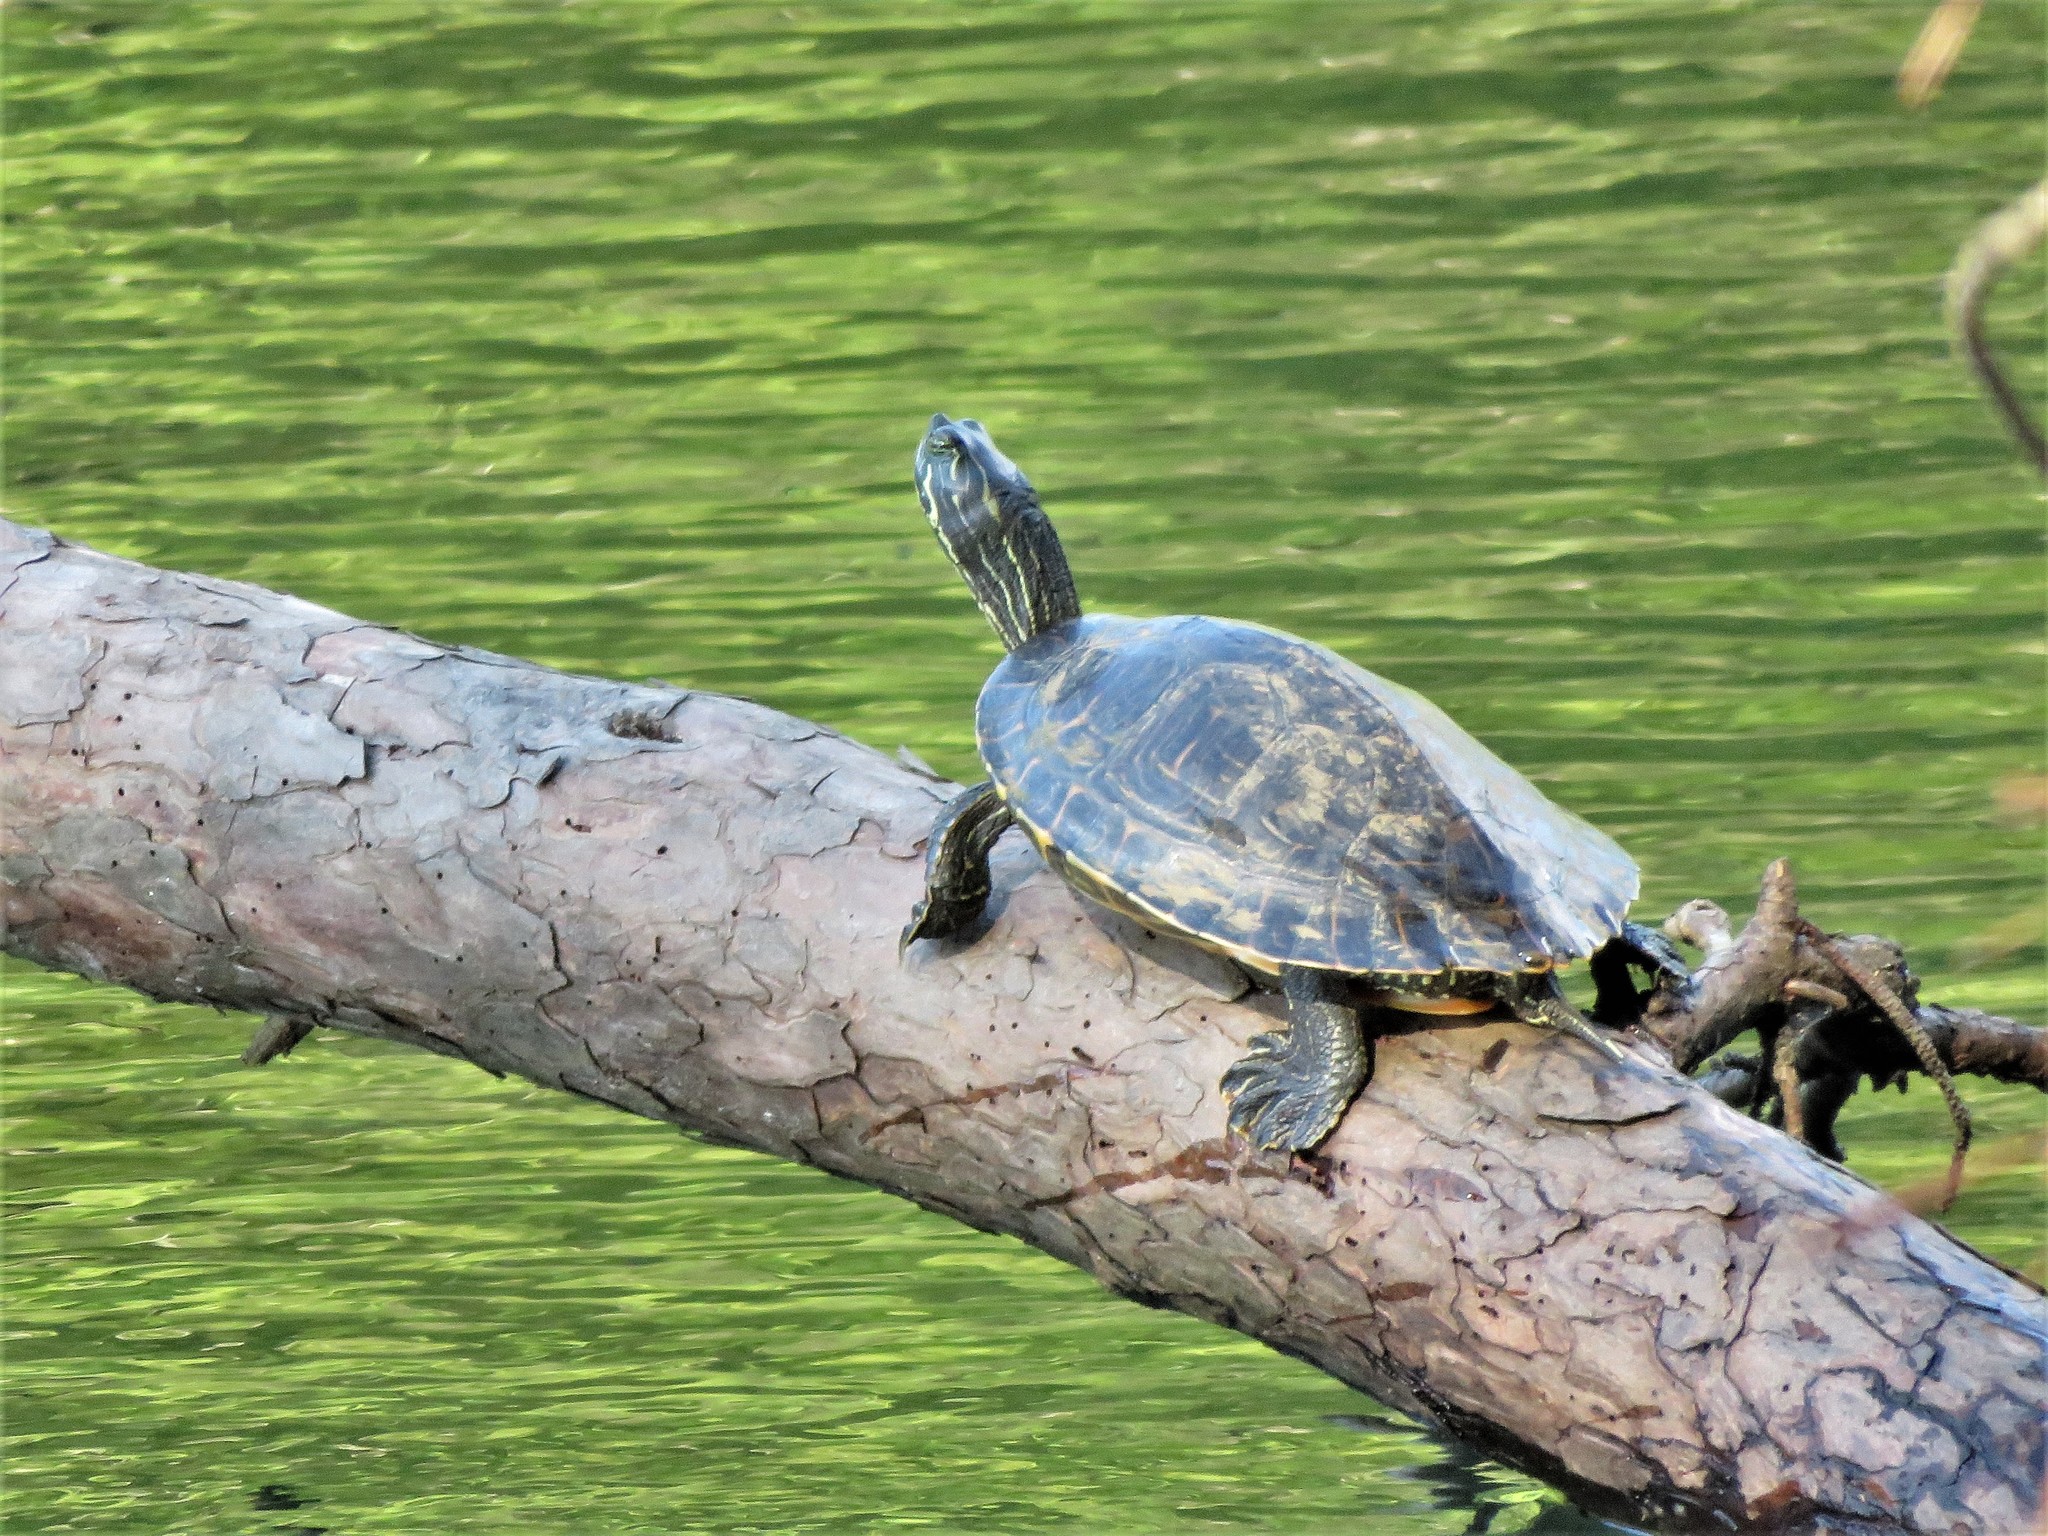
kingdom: Animalia
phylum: Chordata
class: Testudines
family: Emydidae
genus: Pseudemys
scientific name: Pseudemys concinna
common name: Eastern river cooter
